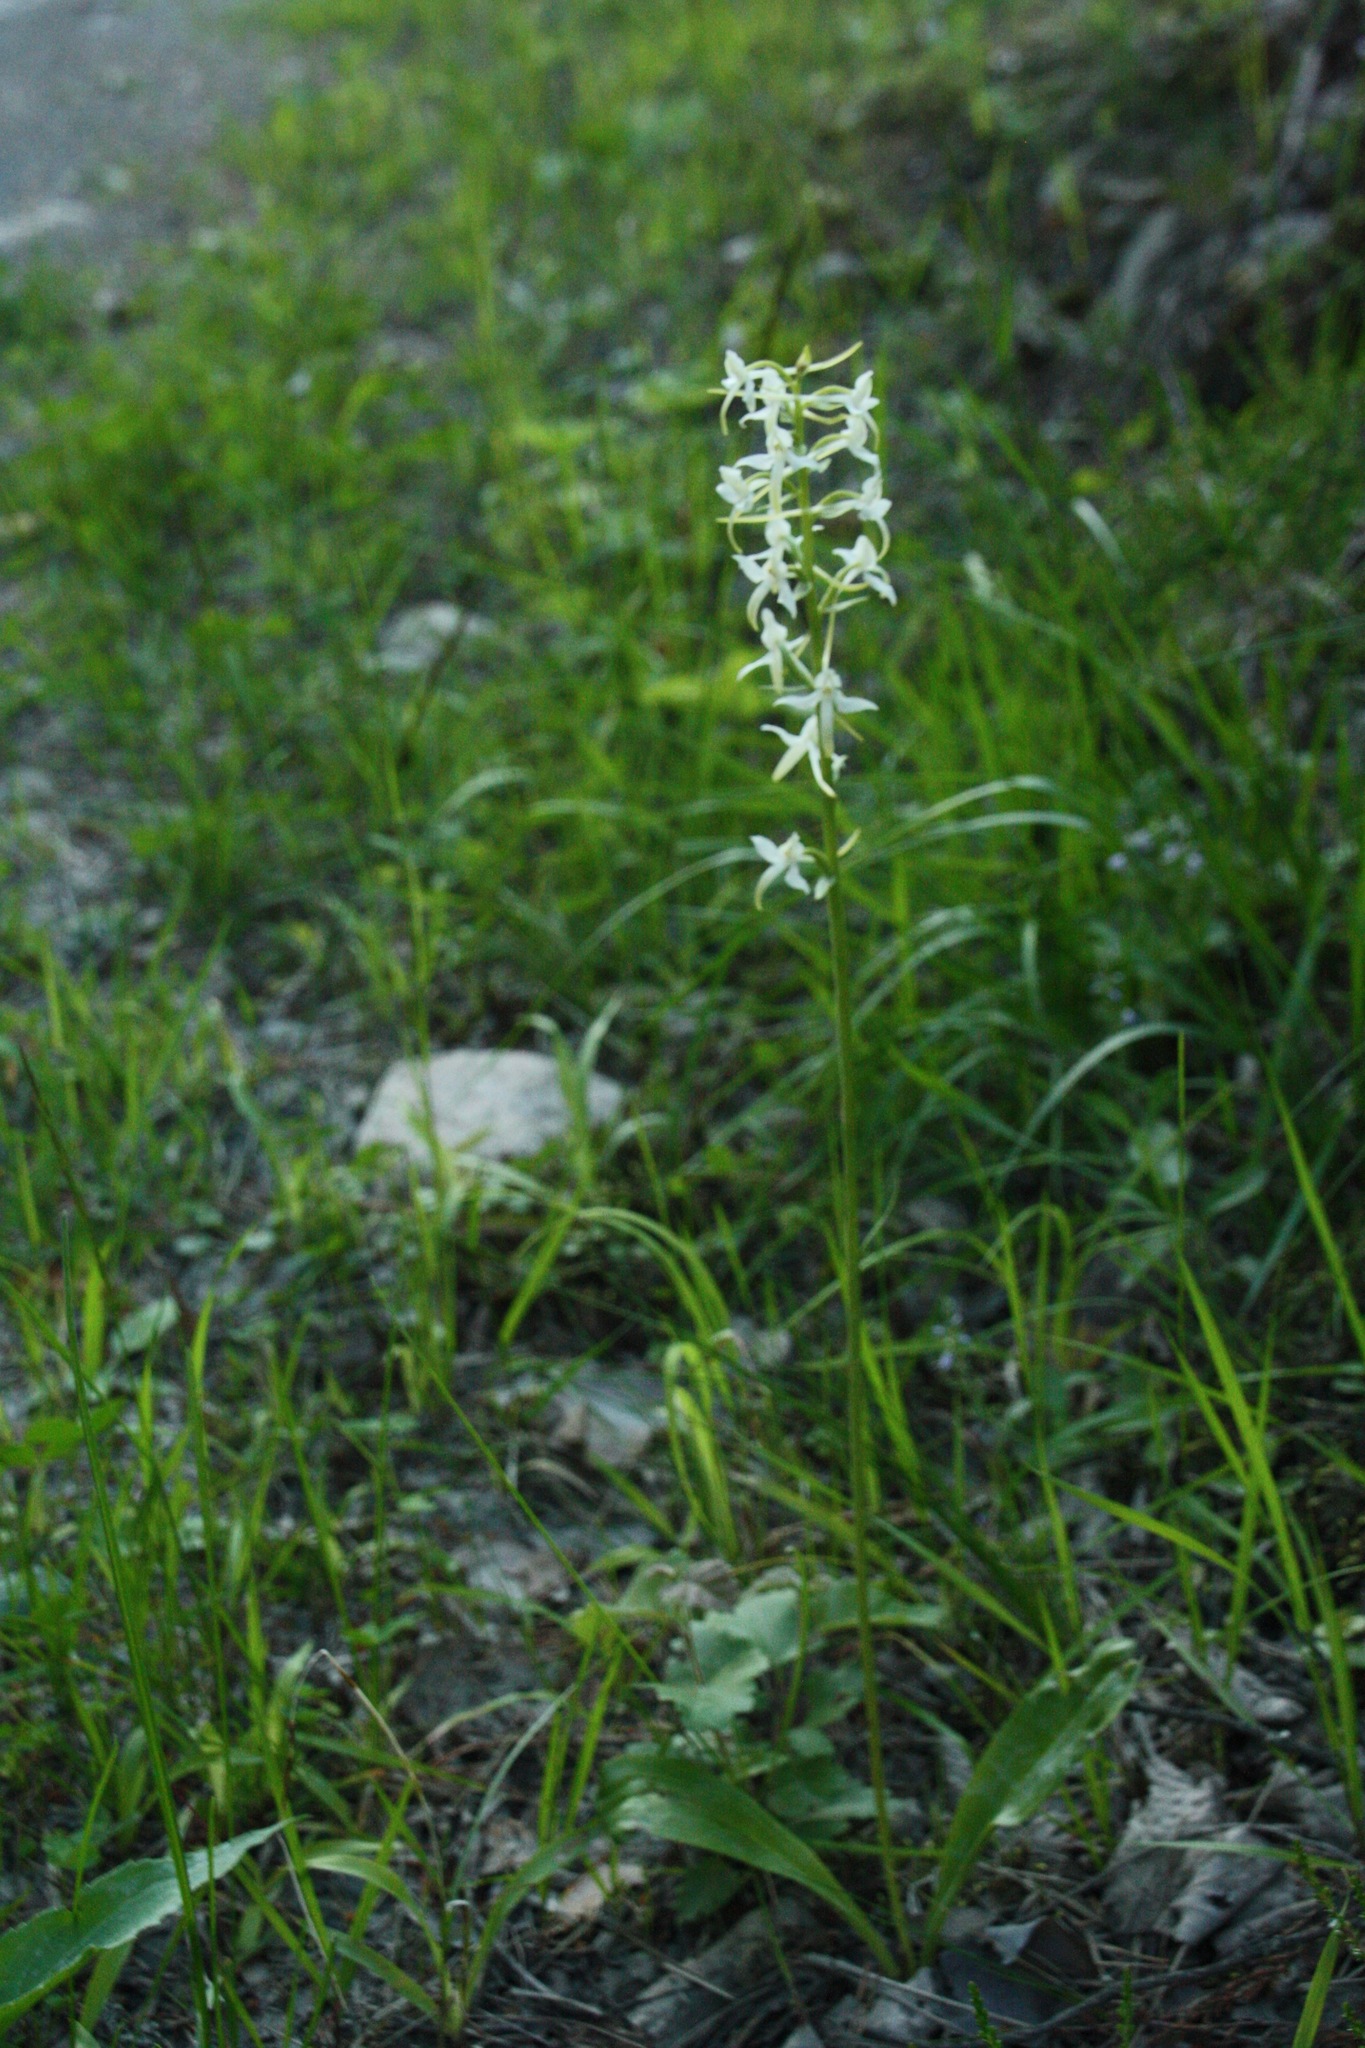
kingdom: Plantae
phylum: Tracheophyta
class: Liliopsida
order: Asparagales
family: Orchidaceae
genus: Platanthera
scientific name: Platanthera bifolia
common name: Lesser butterfly-orchid
